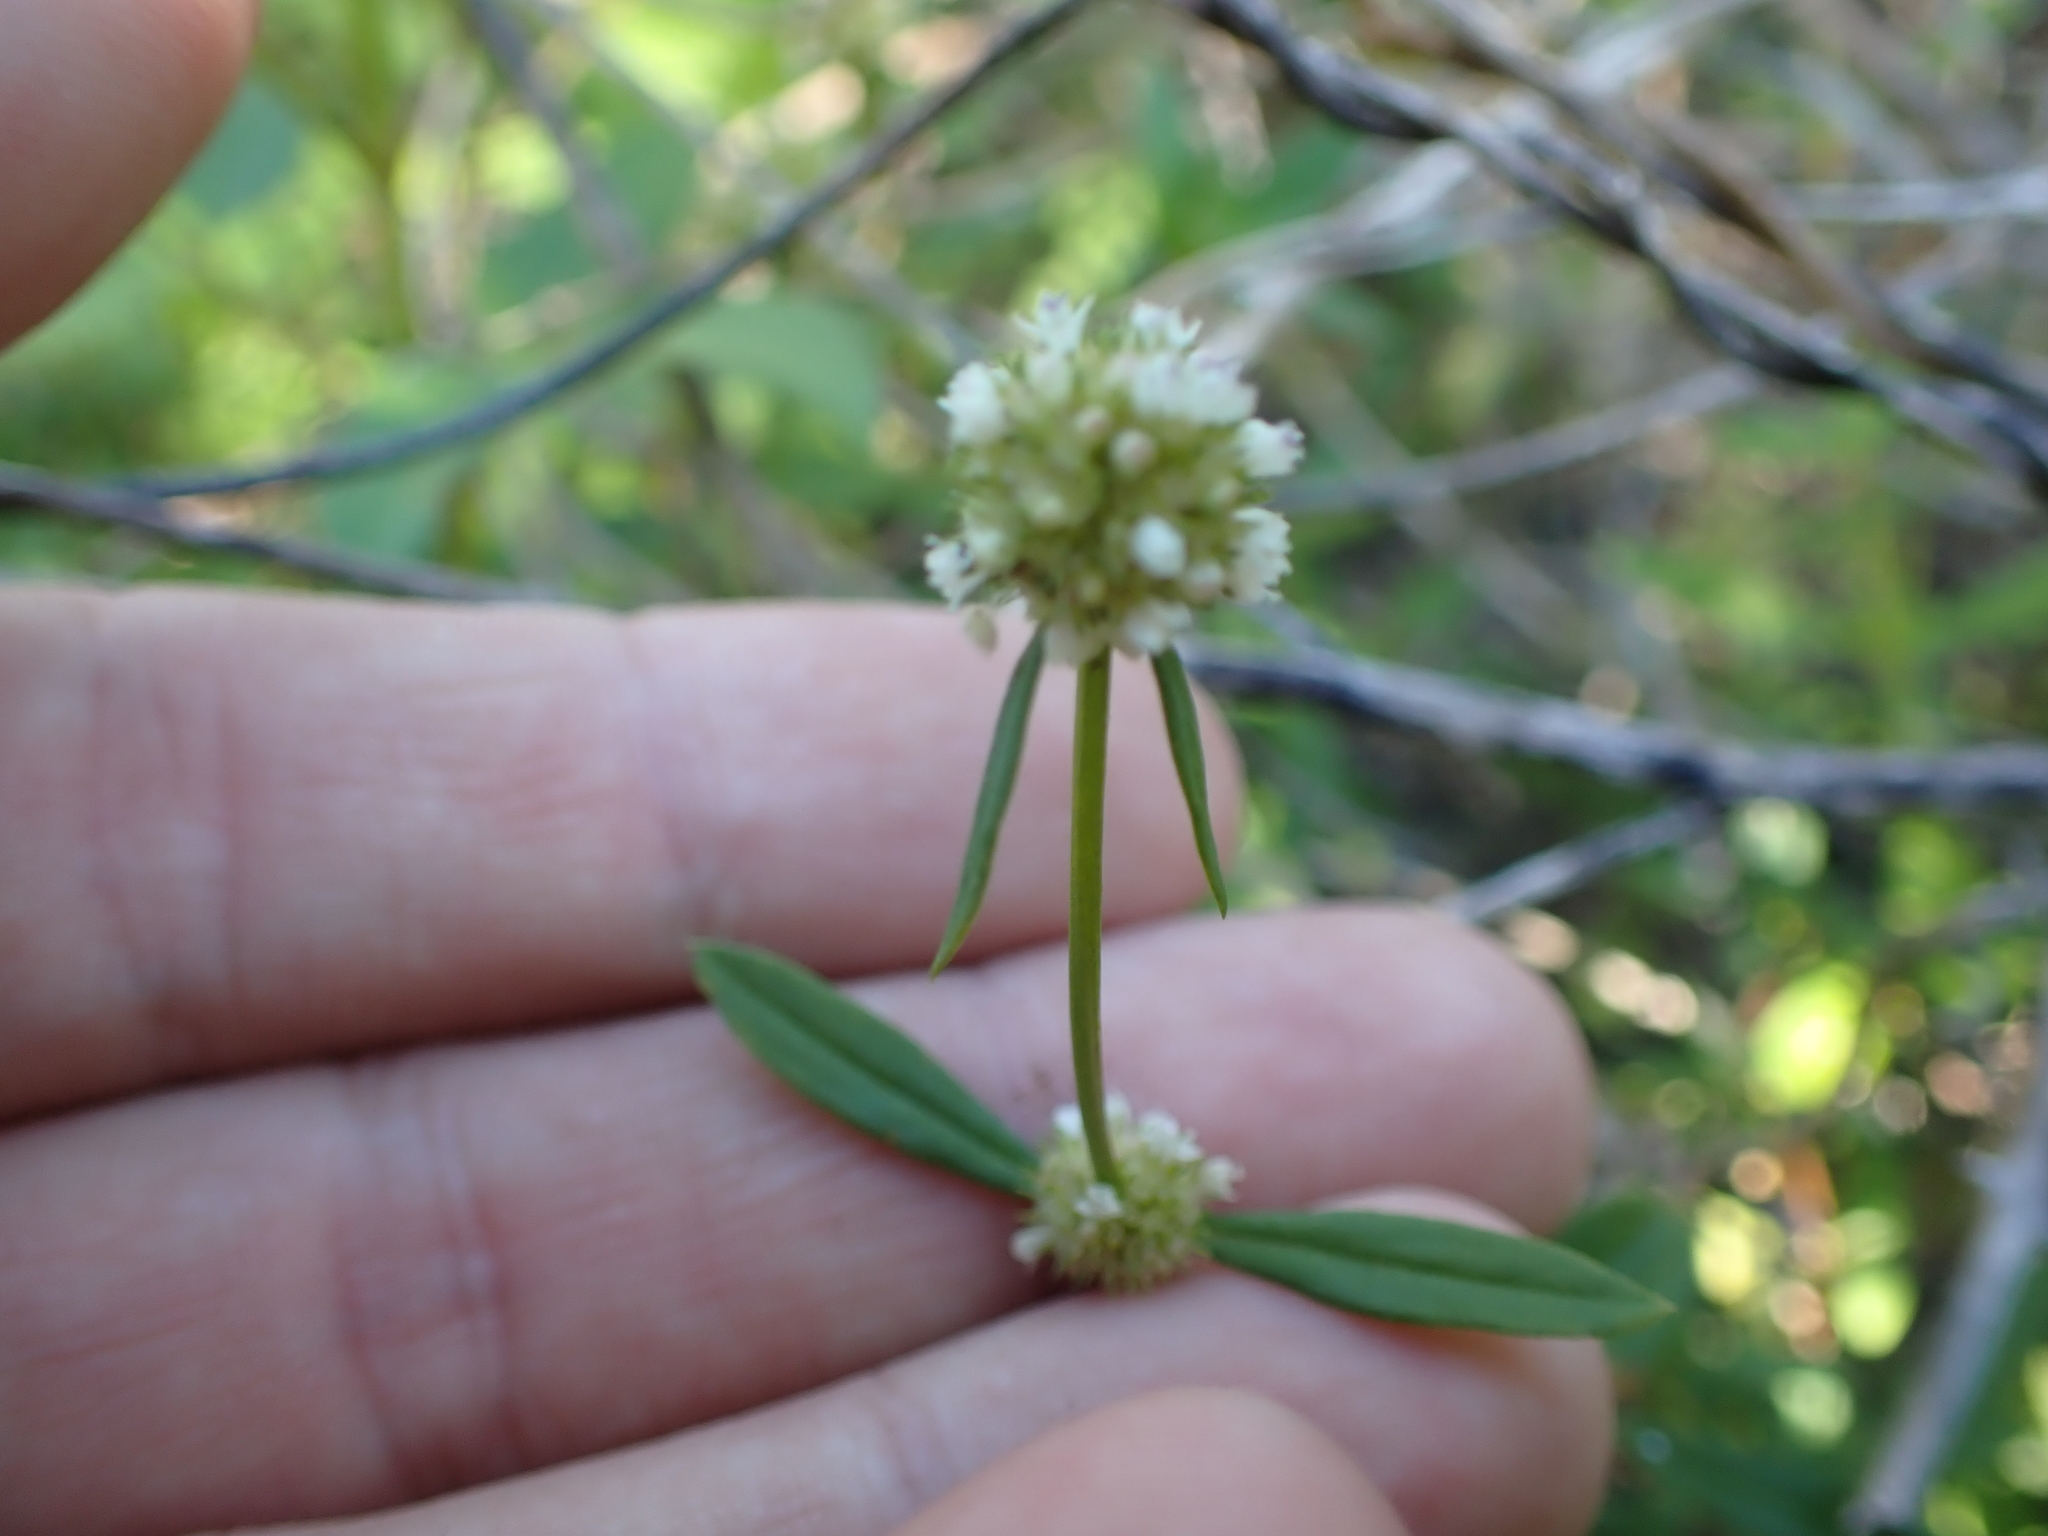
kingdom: Plantae
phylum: Tracheophyta
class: Magnoliopsida
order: Gentianales
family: Rubiaceae
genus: Spermacoce
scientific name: Spermacoce verticillata
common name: Shrubby false buttonweed
